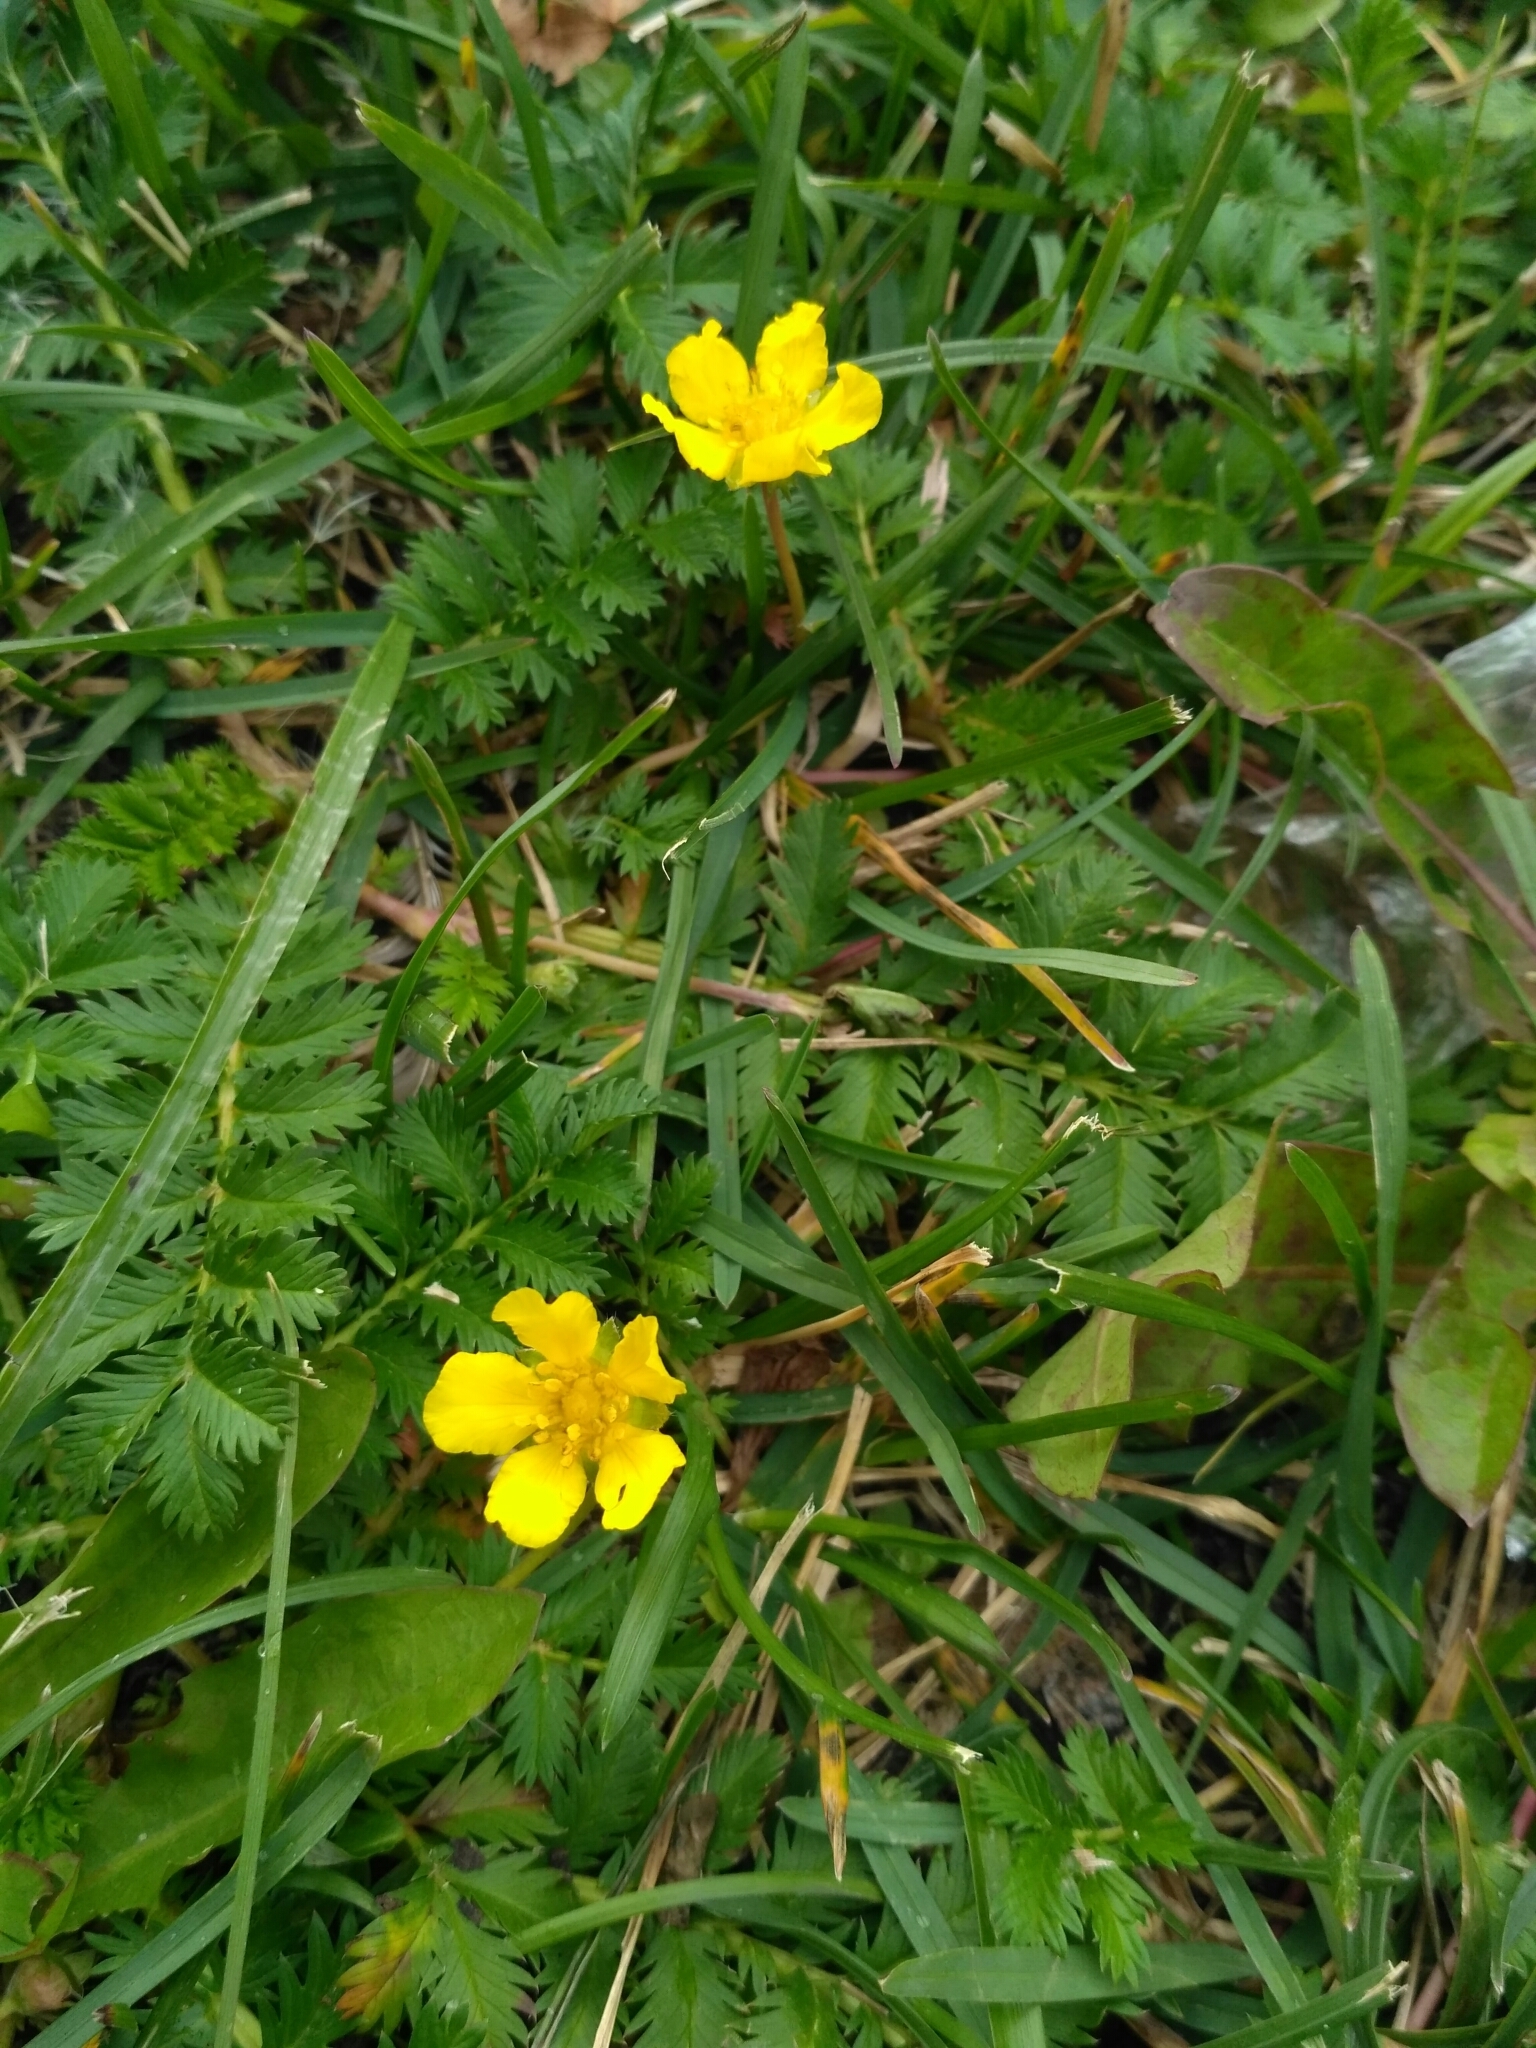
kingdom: Plantae
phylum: Tracheophyta
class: Magnoliopsida
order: Rosales
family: Rosaceae
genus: Argentina
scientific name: Argentina anserina
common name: Common silverweed
